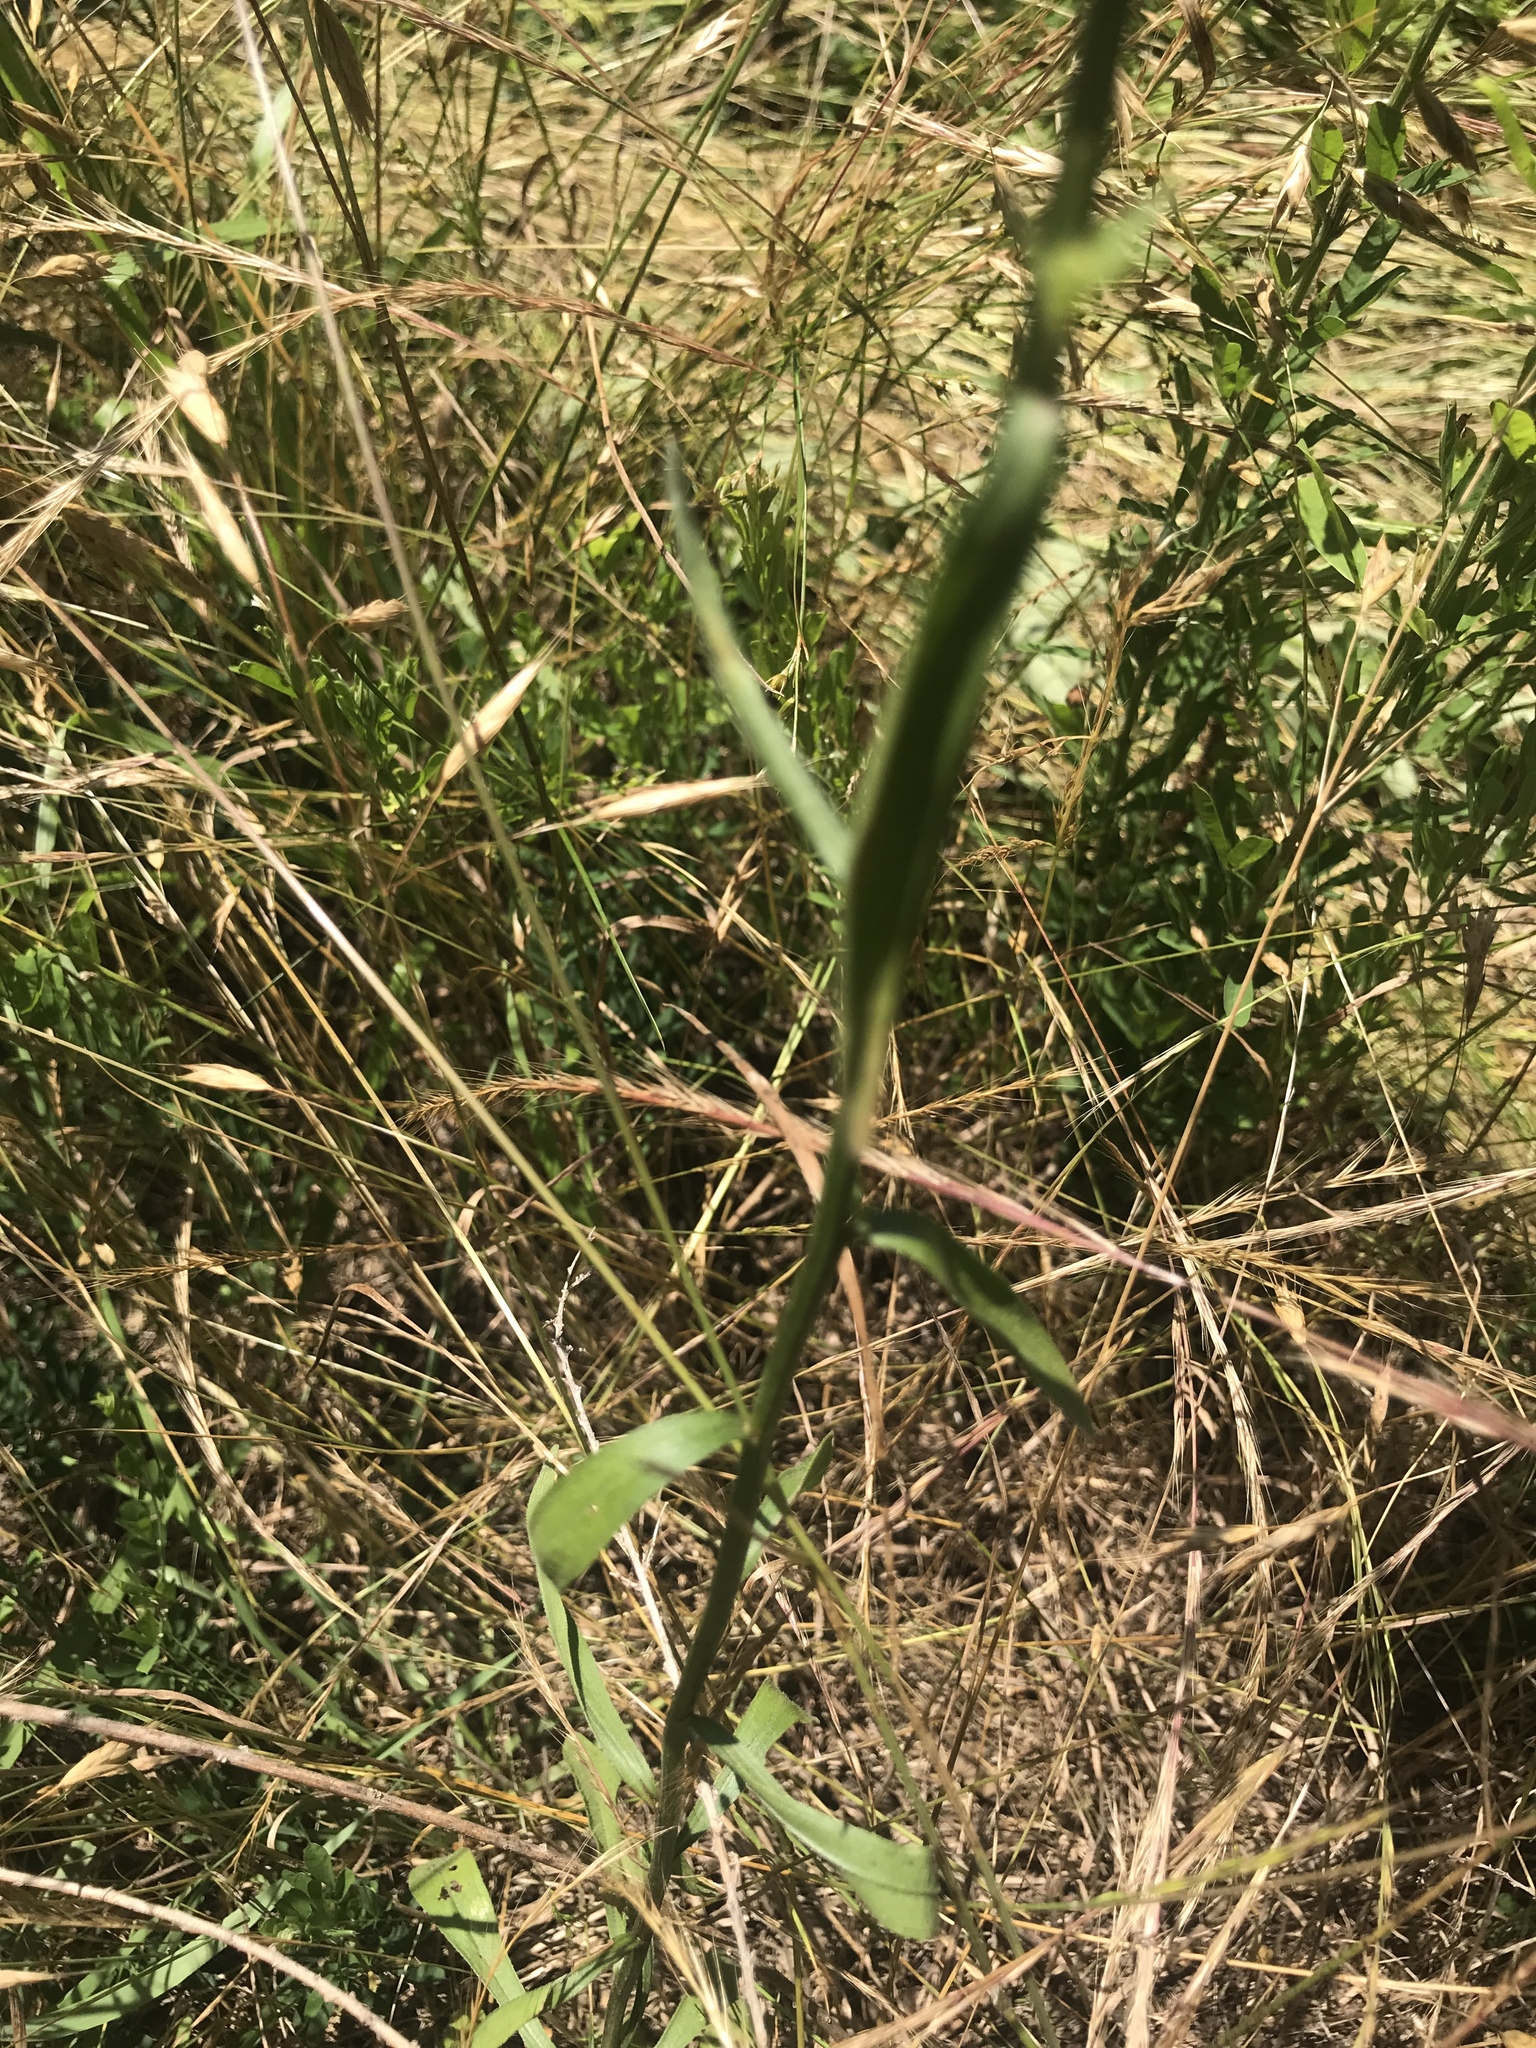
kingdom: Plantae
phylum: Tracheophyta
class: Magnoliopsida
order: Asterales
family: Asteraceae
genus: Erigeron
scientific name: Erigeron strigosus
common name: Common eastern fleabane
